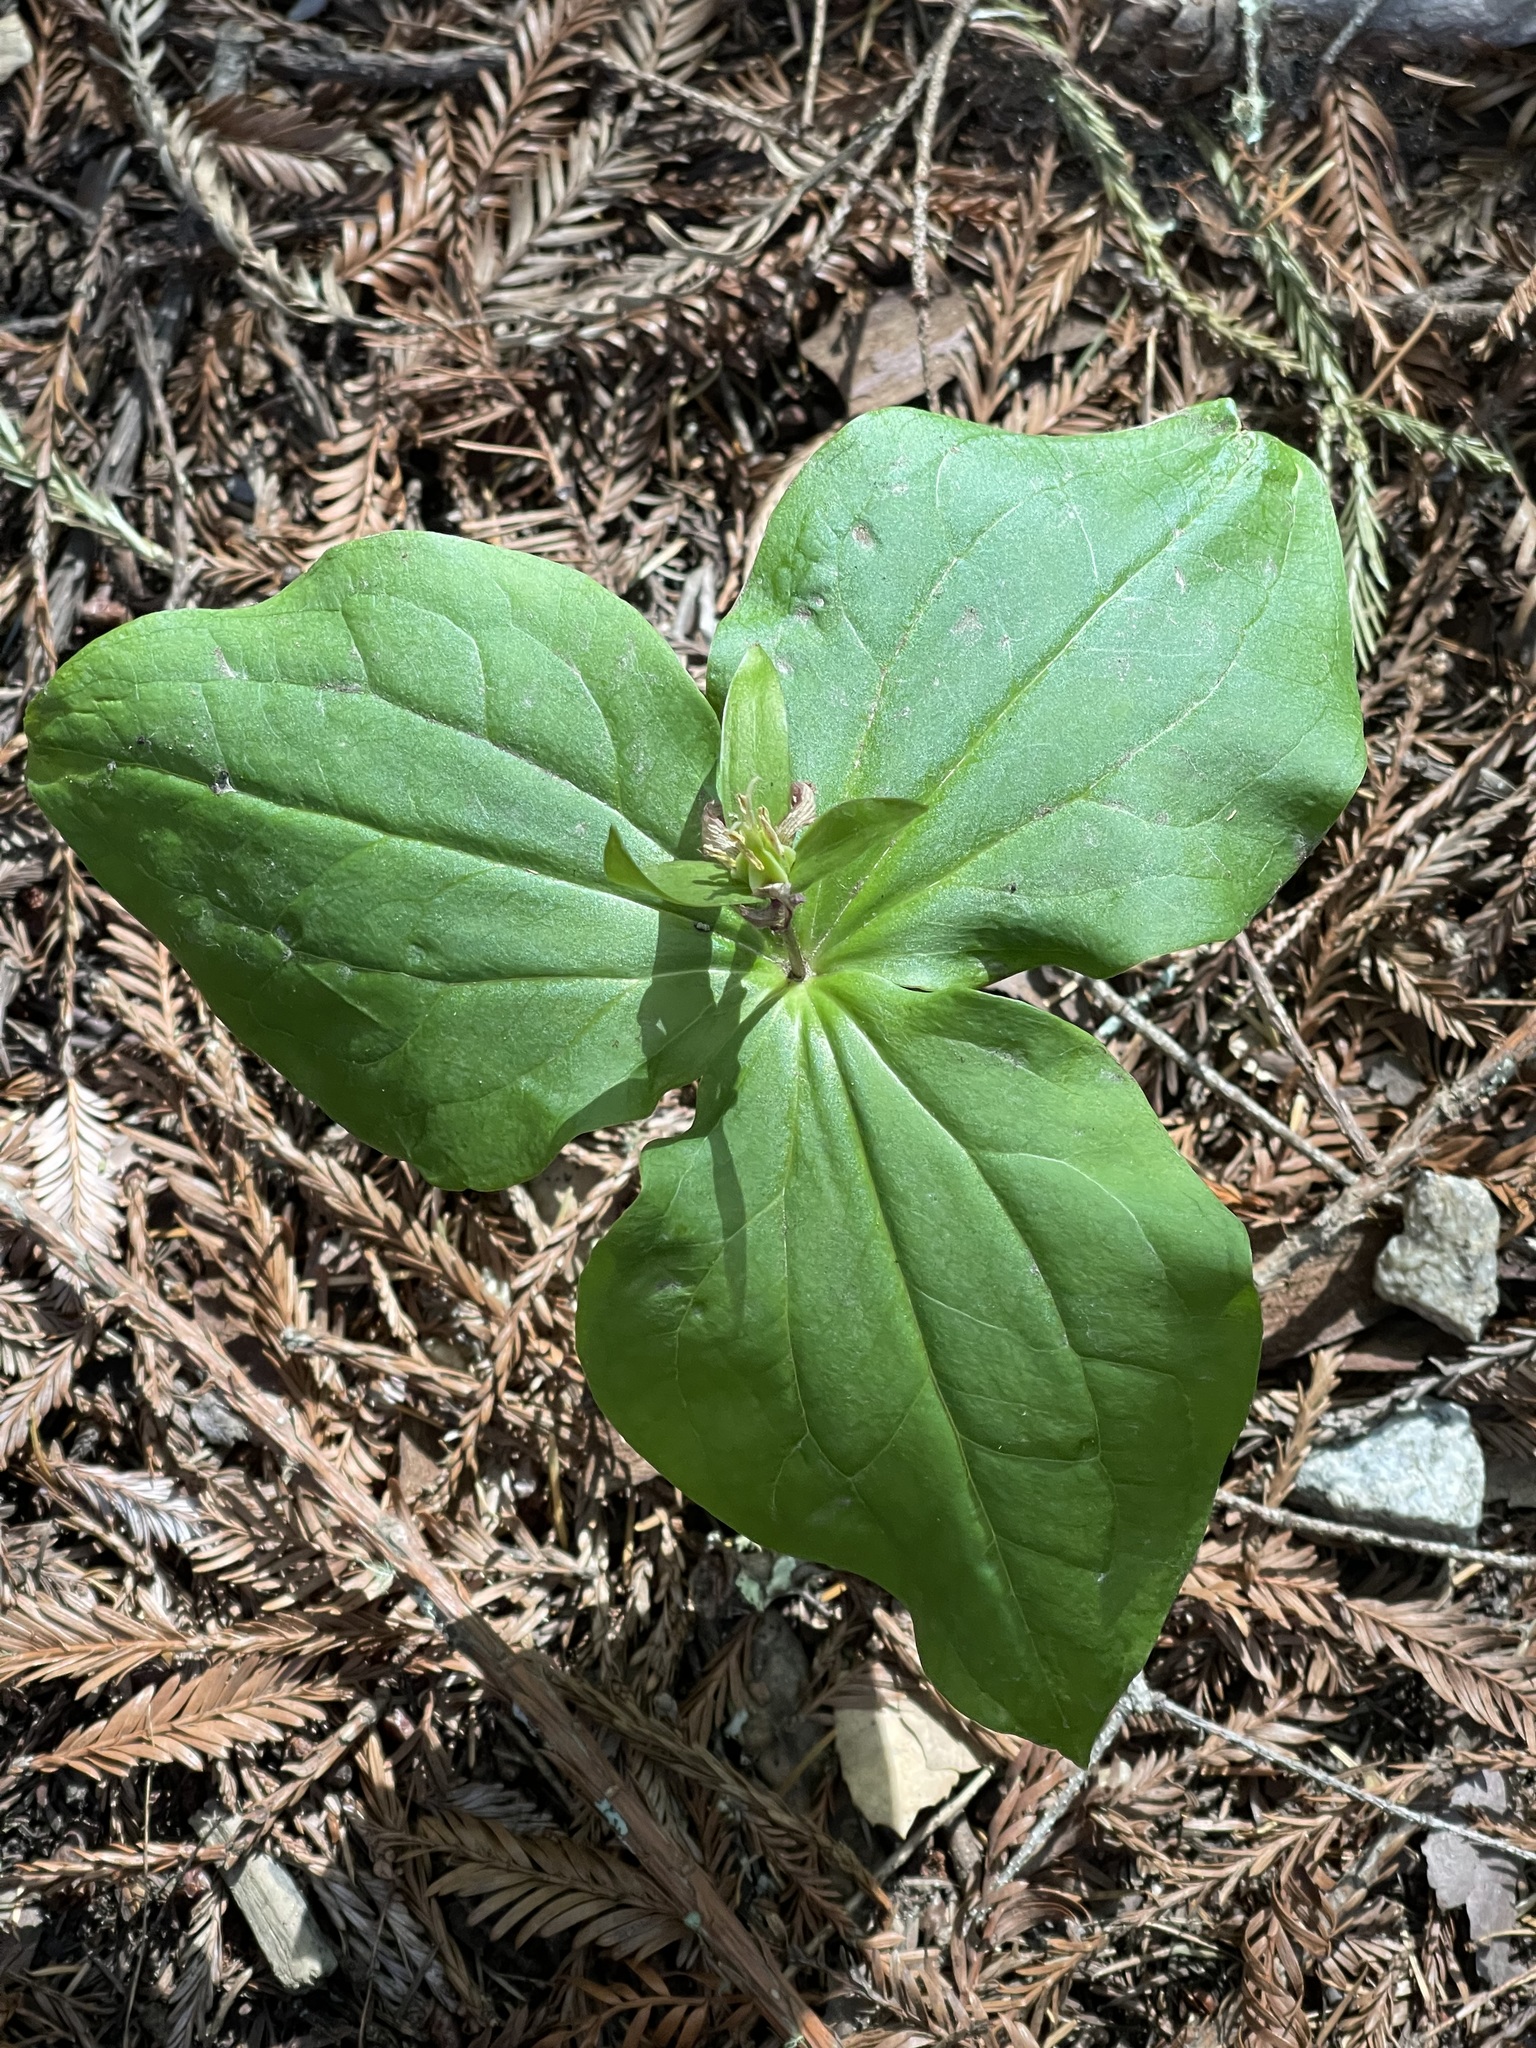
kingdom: Plantae
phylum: Tracheophyta
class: Liliopsida
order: Liliales
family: Melanthiaceae
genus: Trillium
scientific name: Trillium ovatum
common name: Pacific trillium
